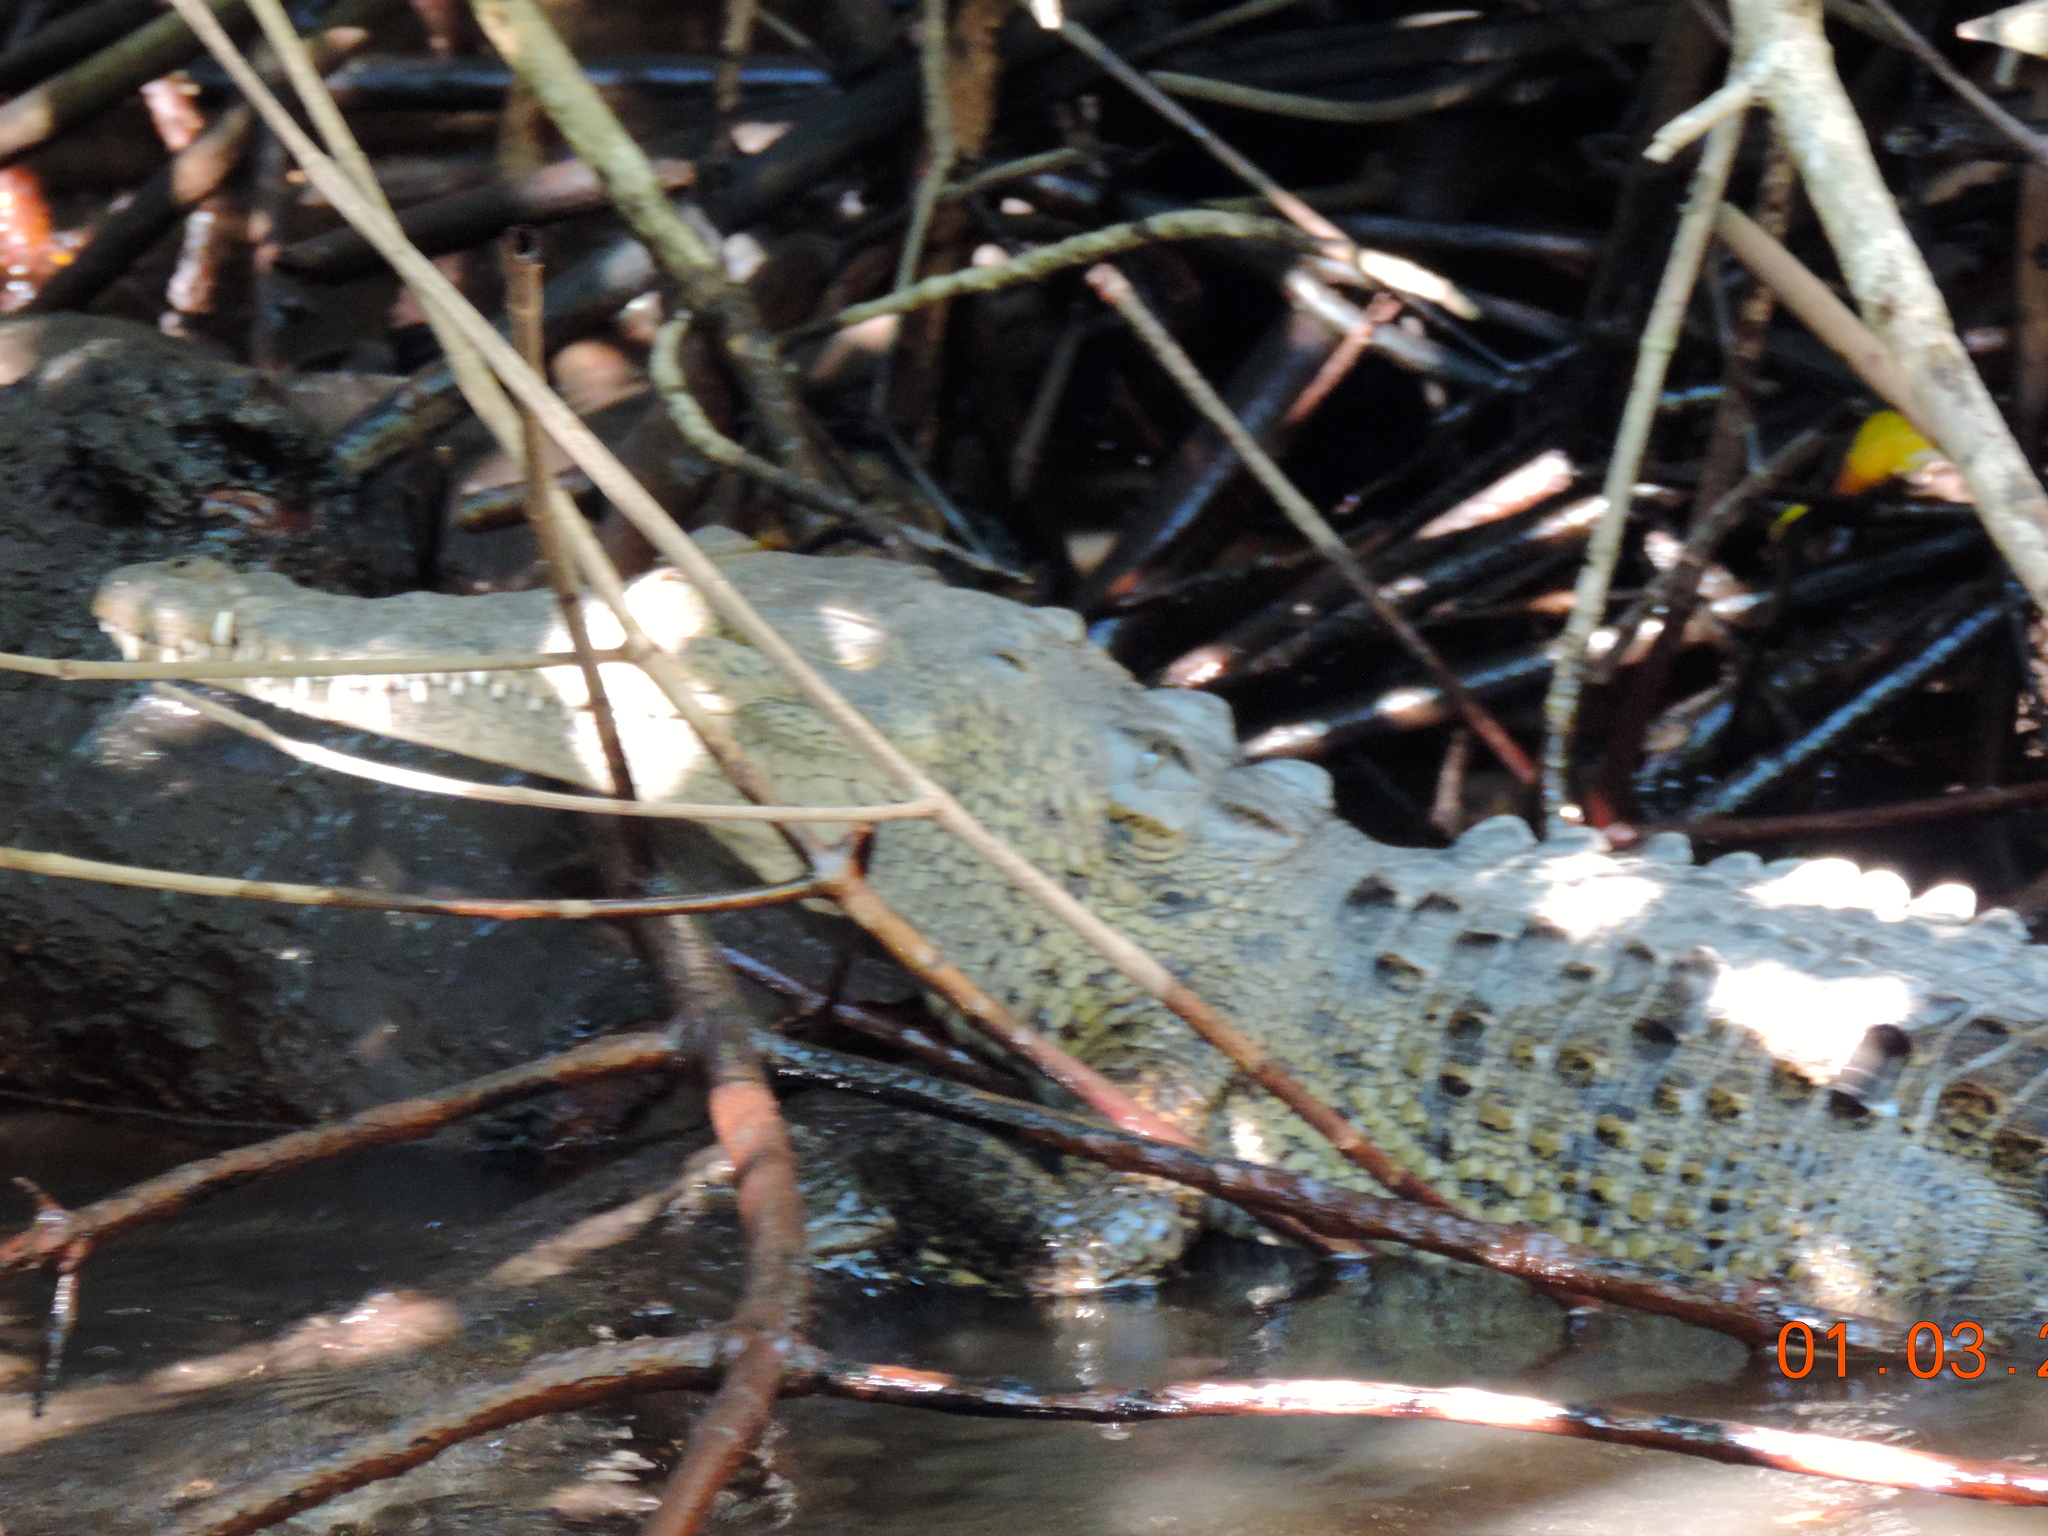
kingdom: Animalia
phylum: Chordata
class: Crocodylia
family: Crocodylidae
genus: Crocodylus
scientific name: Crocodylus acutus
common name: American crocodile
